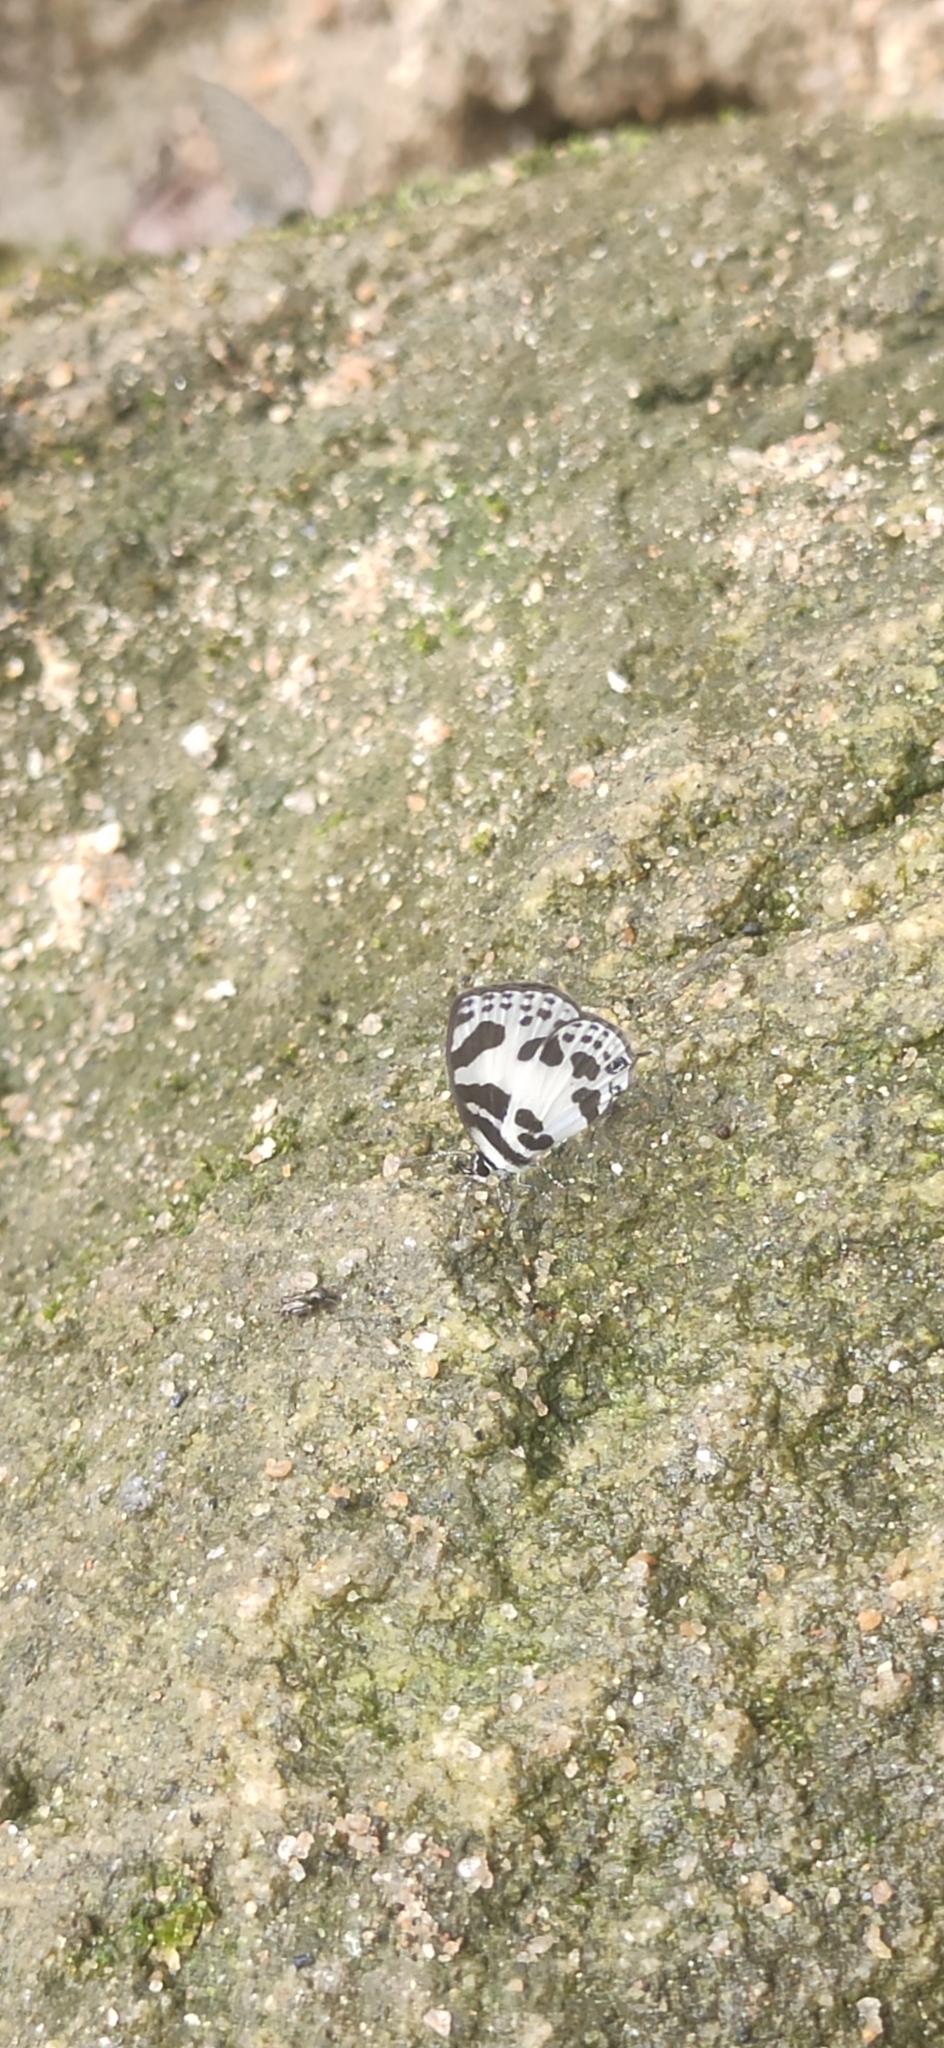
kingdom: Animalia
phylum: Arthropoda
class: Insecta
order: Lepidoptera
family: Lycaenidae
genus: Discolampa
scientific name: Discolampa ethion
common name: Banded blue pierrot
